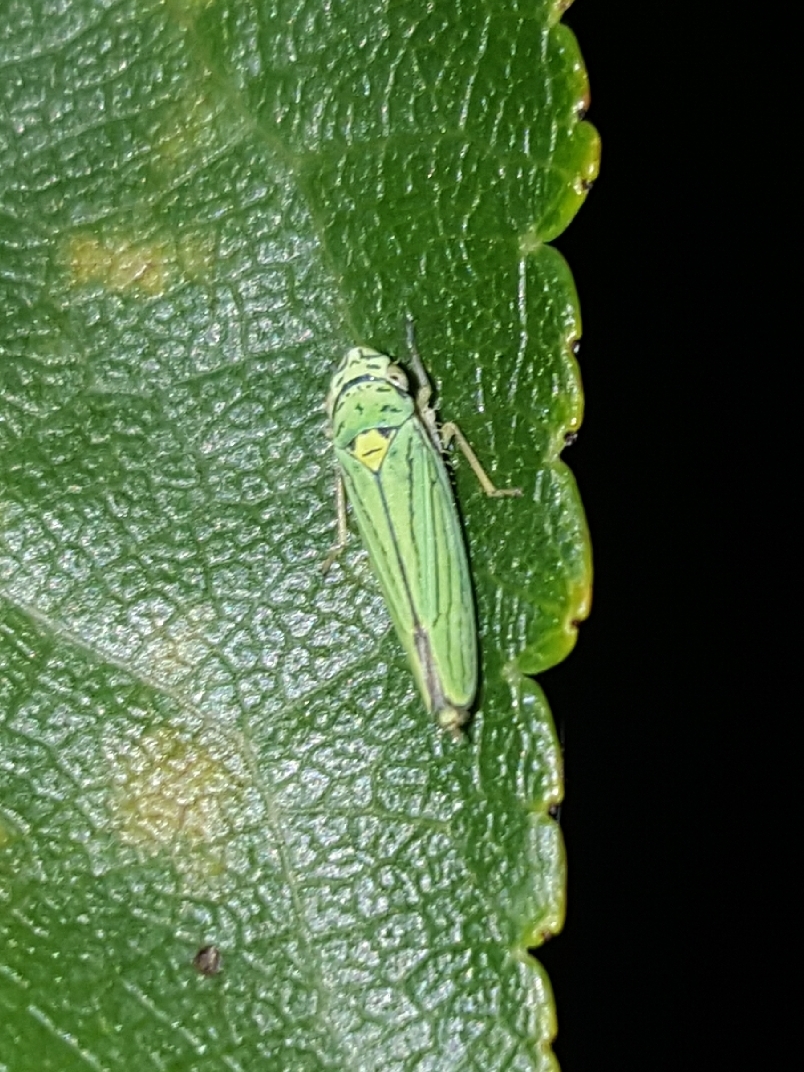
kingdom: Animalia
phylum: Arthropoda
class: Insecta
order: Hemiptera
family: Cicadellidae
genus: Graphocephala
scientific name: Graphocephala atropunctata
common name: Blue-green sharpshooter
